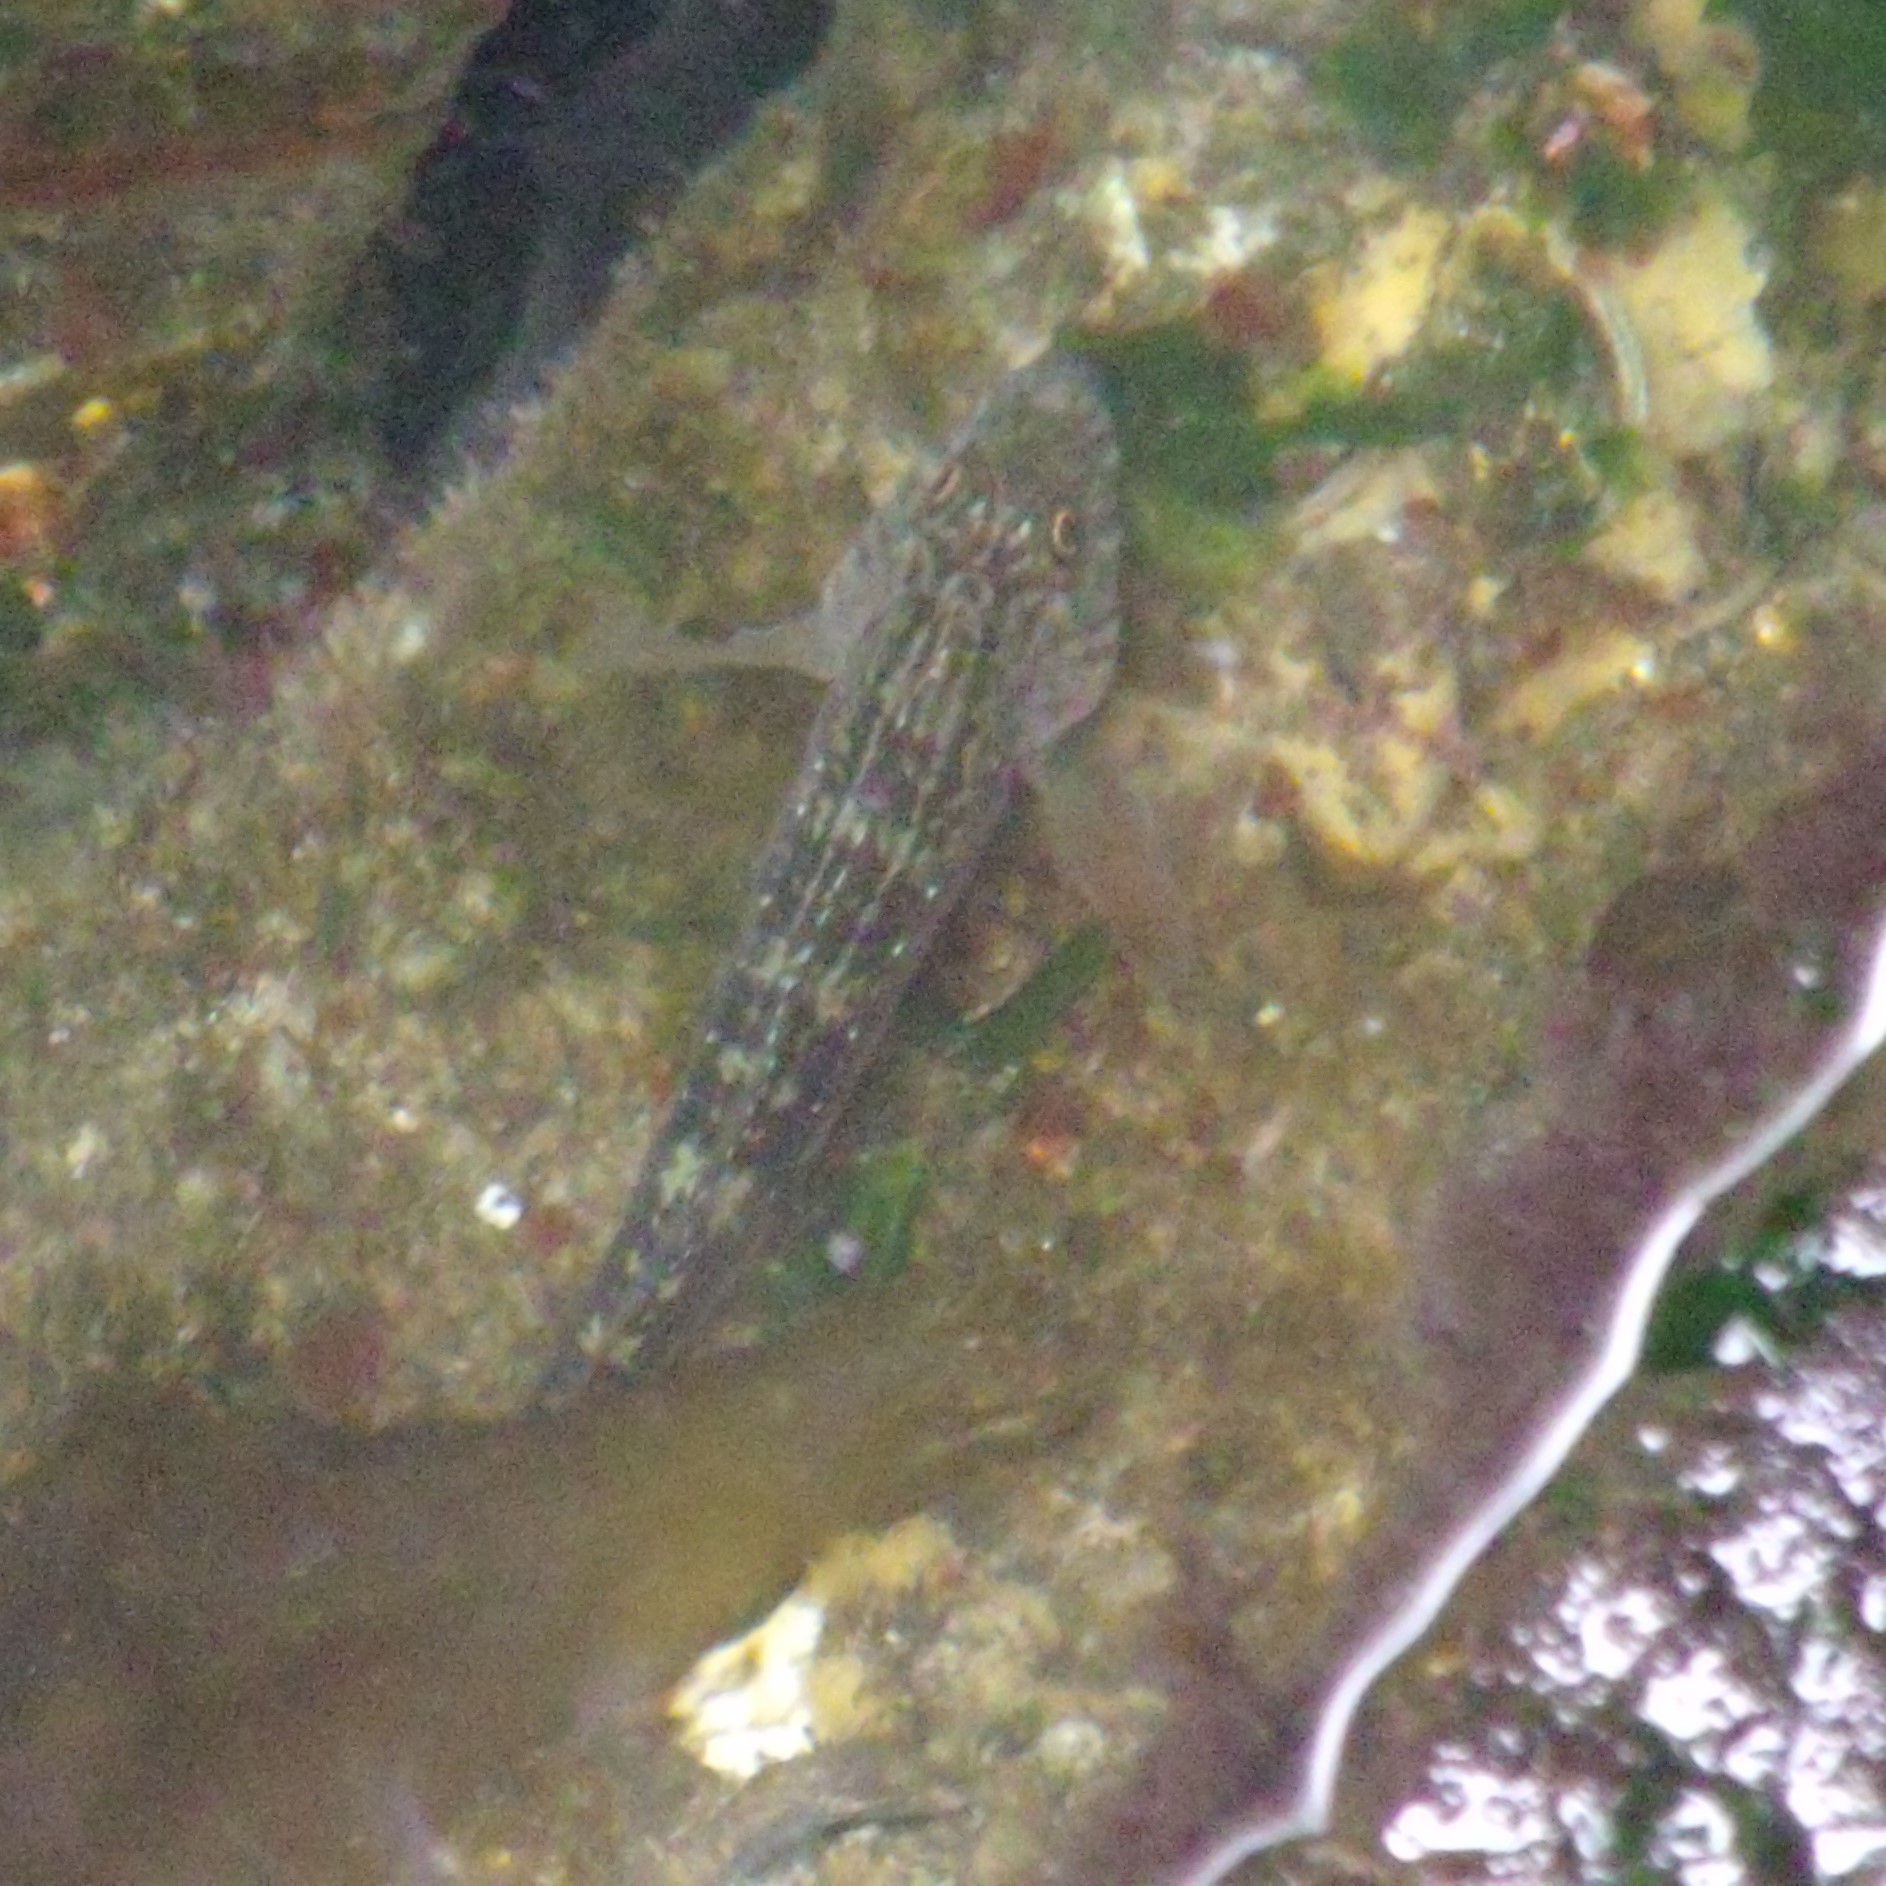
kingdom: Animalia
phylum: Chordata
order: Perciformes
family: Tripterygiidae
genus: Forsterygion
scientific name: Forsterygion varium
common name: Variable triplefin
